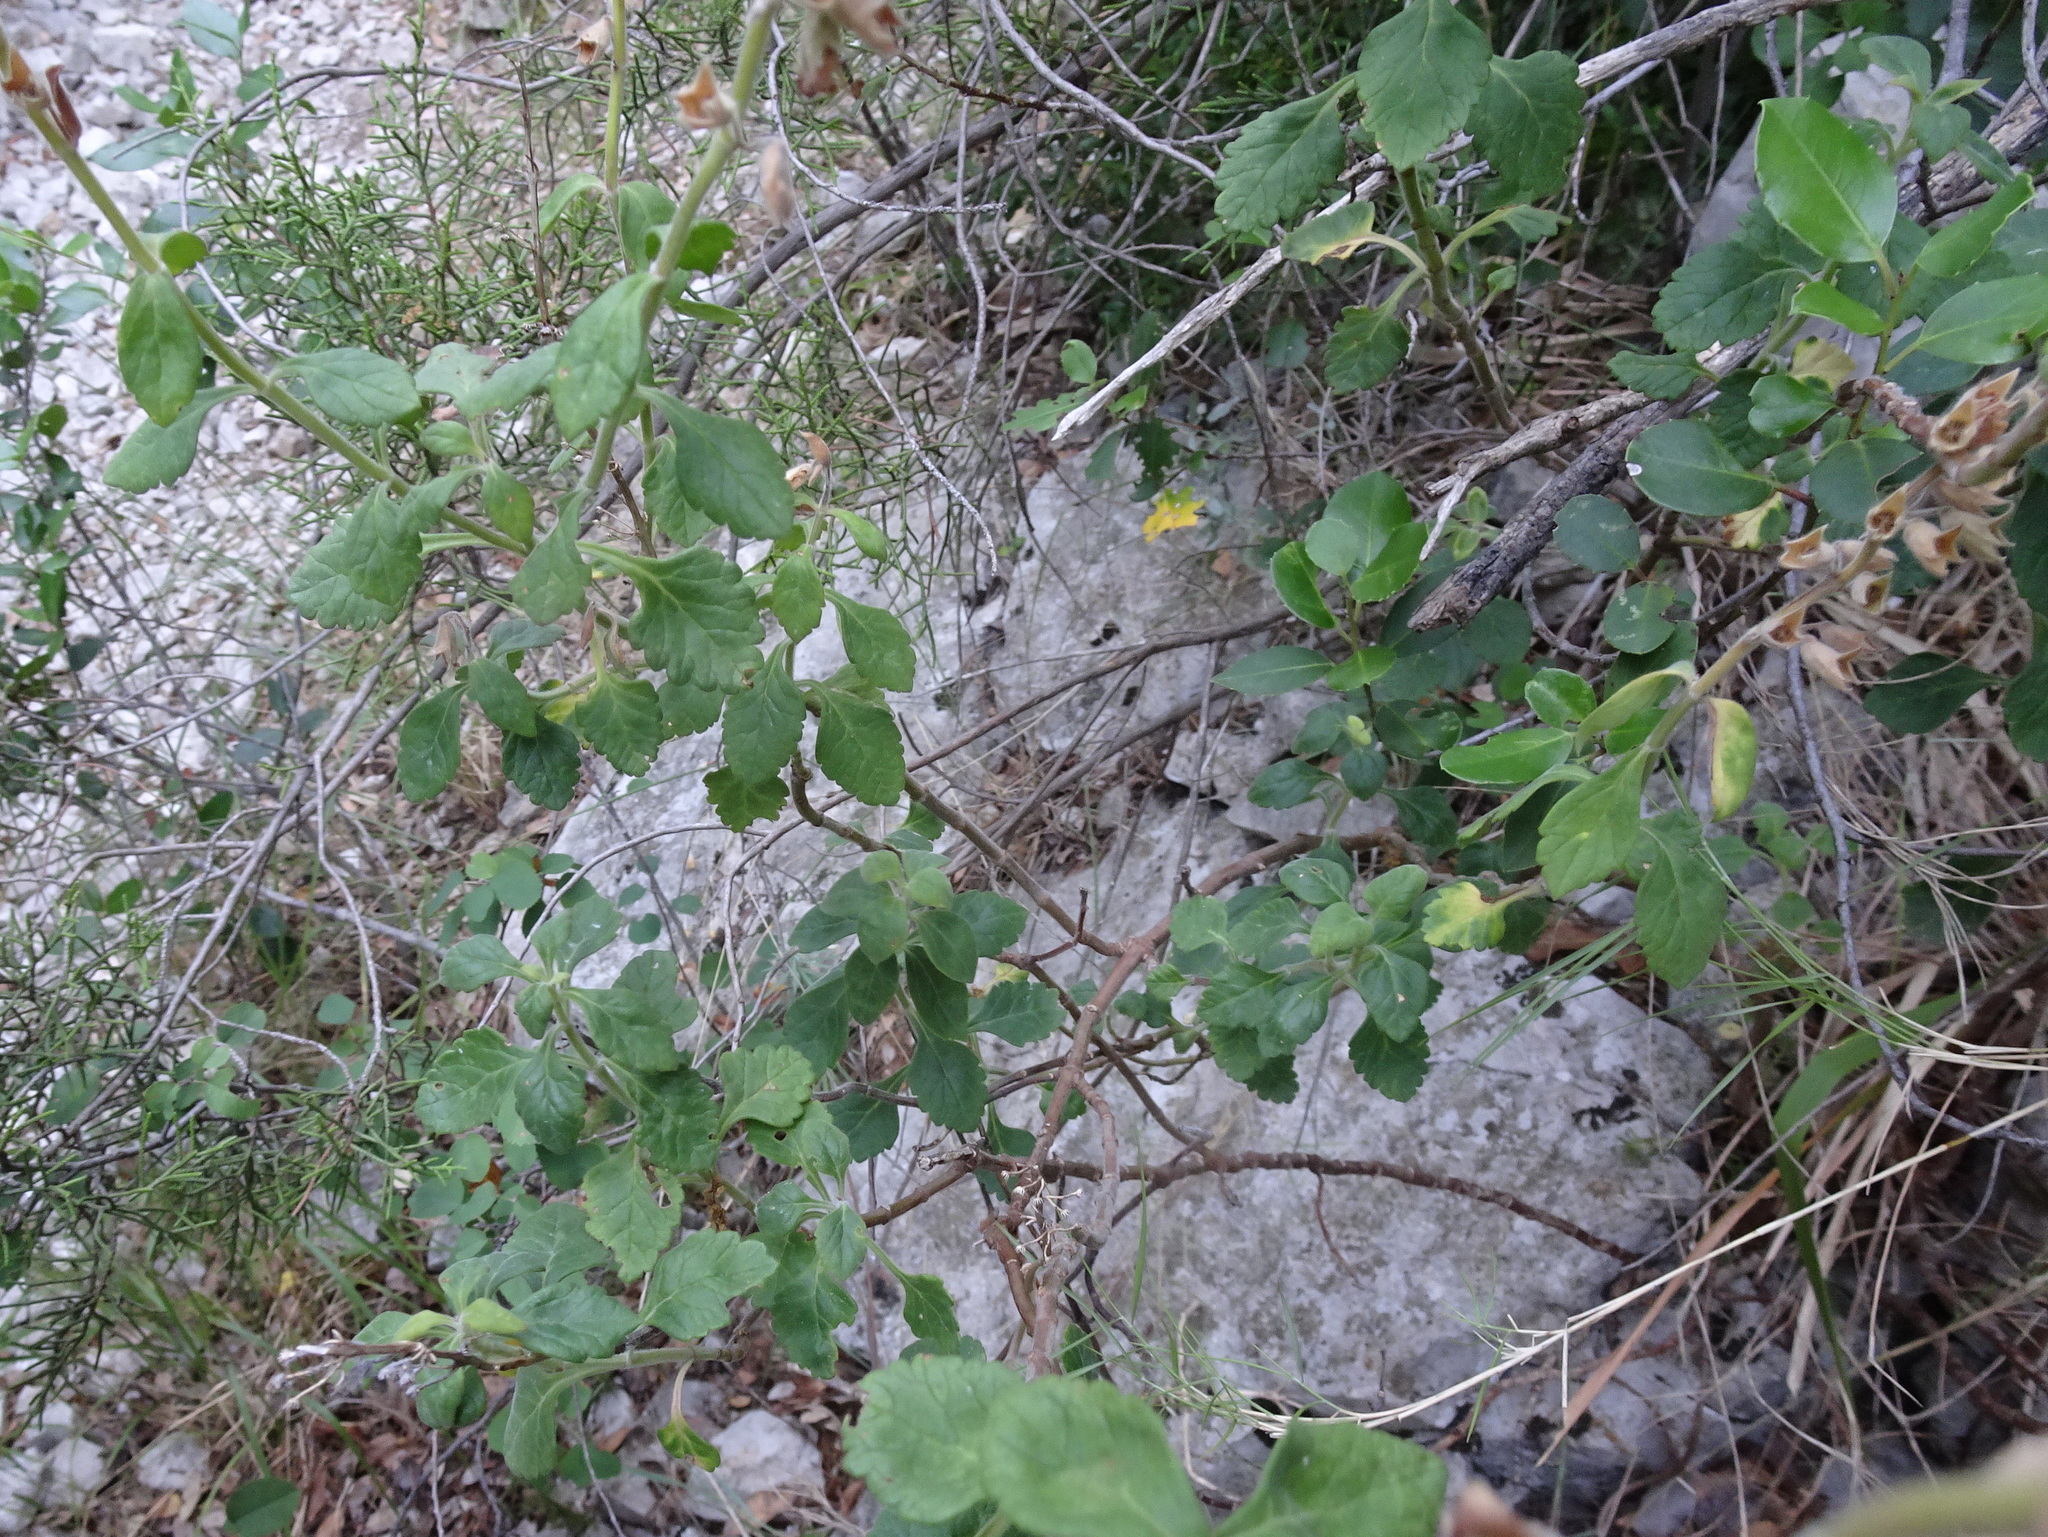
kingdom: Plantae
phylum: Tracheophyta
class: Magnoliopsida
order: Lamiales
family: Lamiaceae
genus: Teucrium
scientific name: Teucrium chamaedrys
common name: Wall germander
